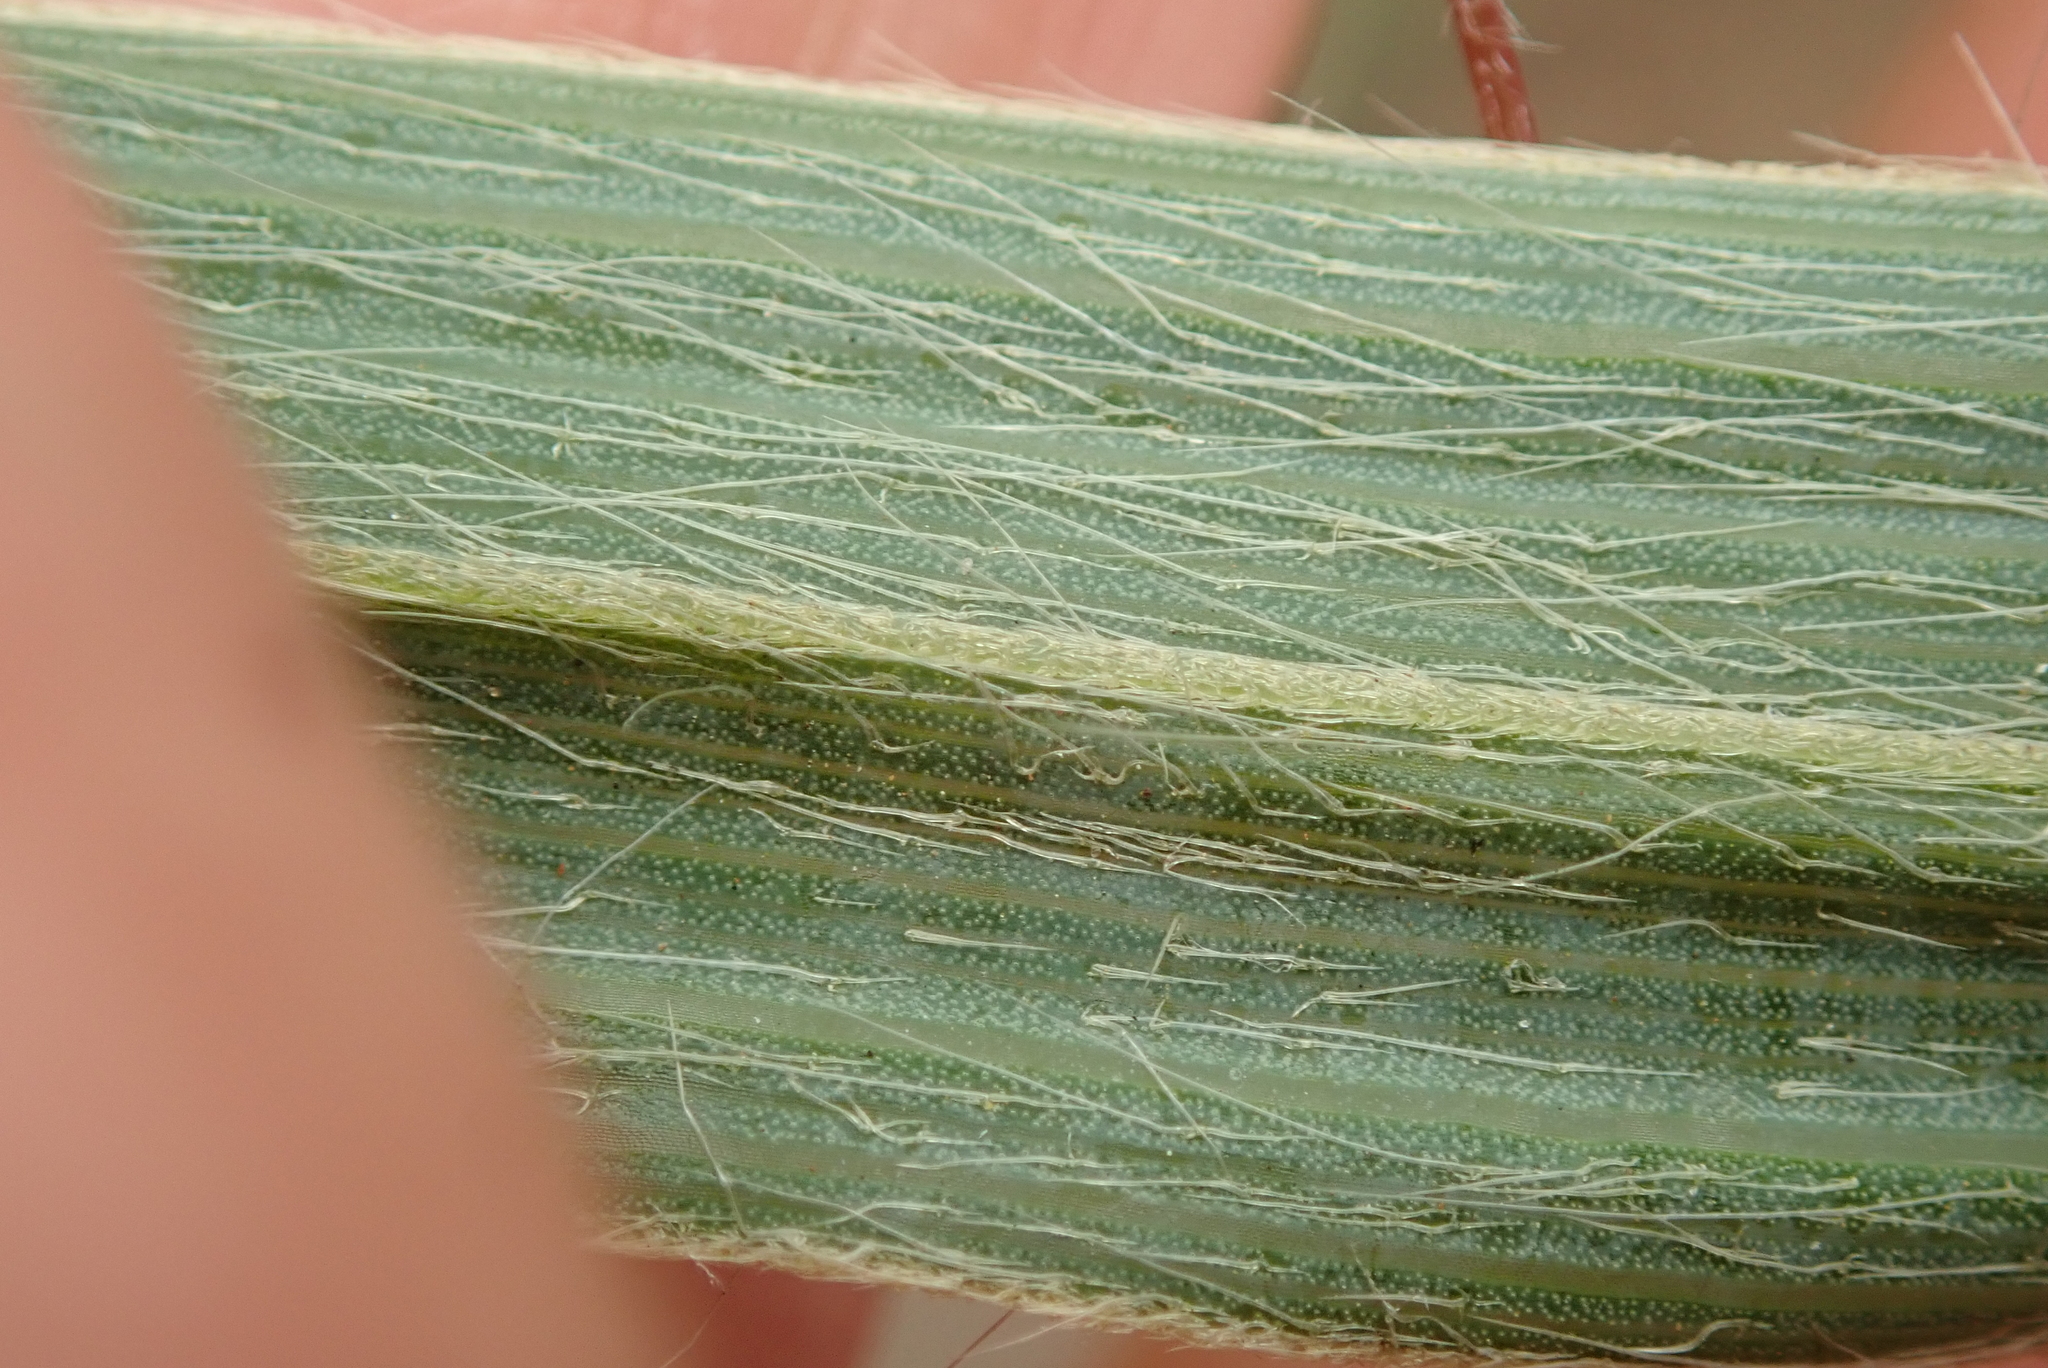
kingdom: Plantae
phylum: Tracheophyta
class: Liliopsida
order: Asparagales
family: Hypoxidaceae
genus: Hypoxis
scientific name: Hypoxis rigidula
